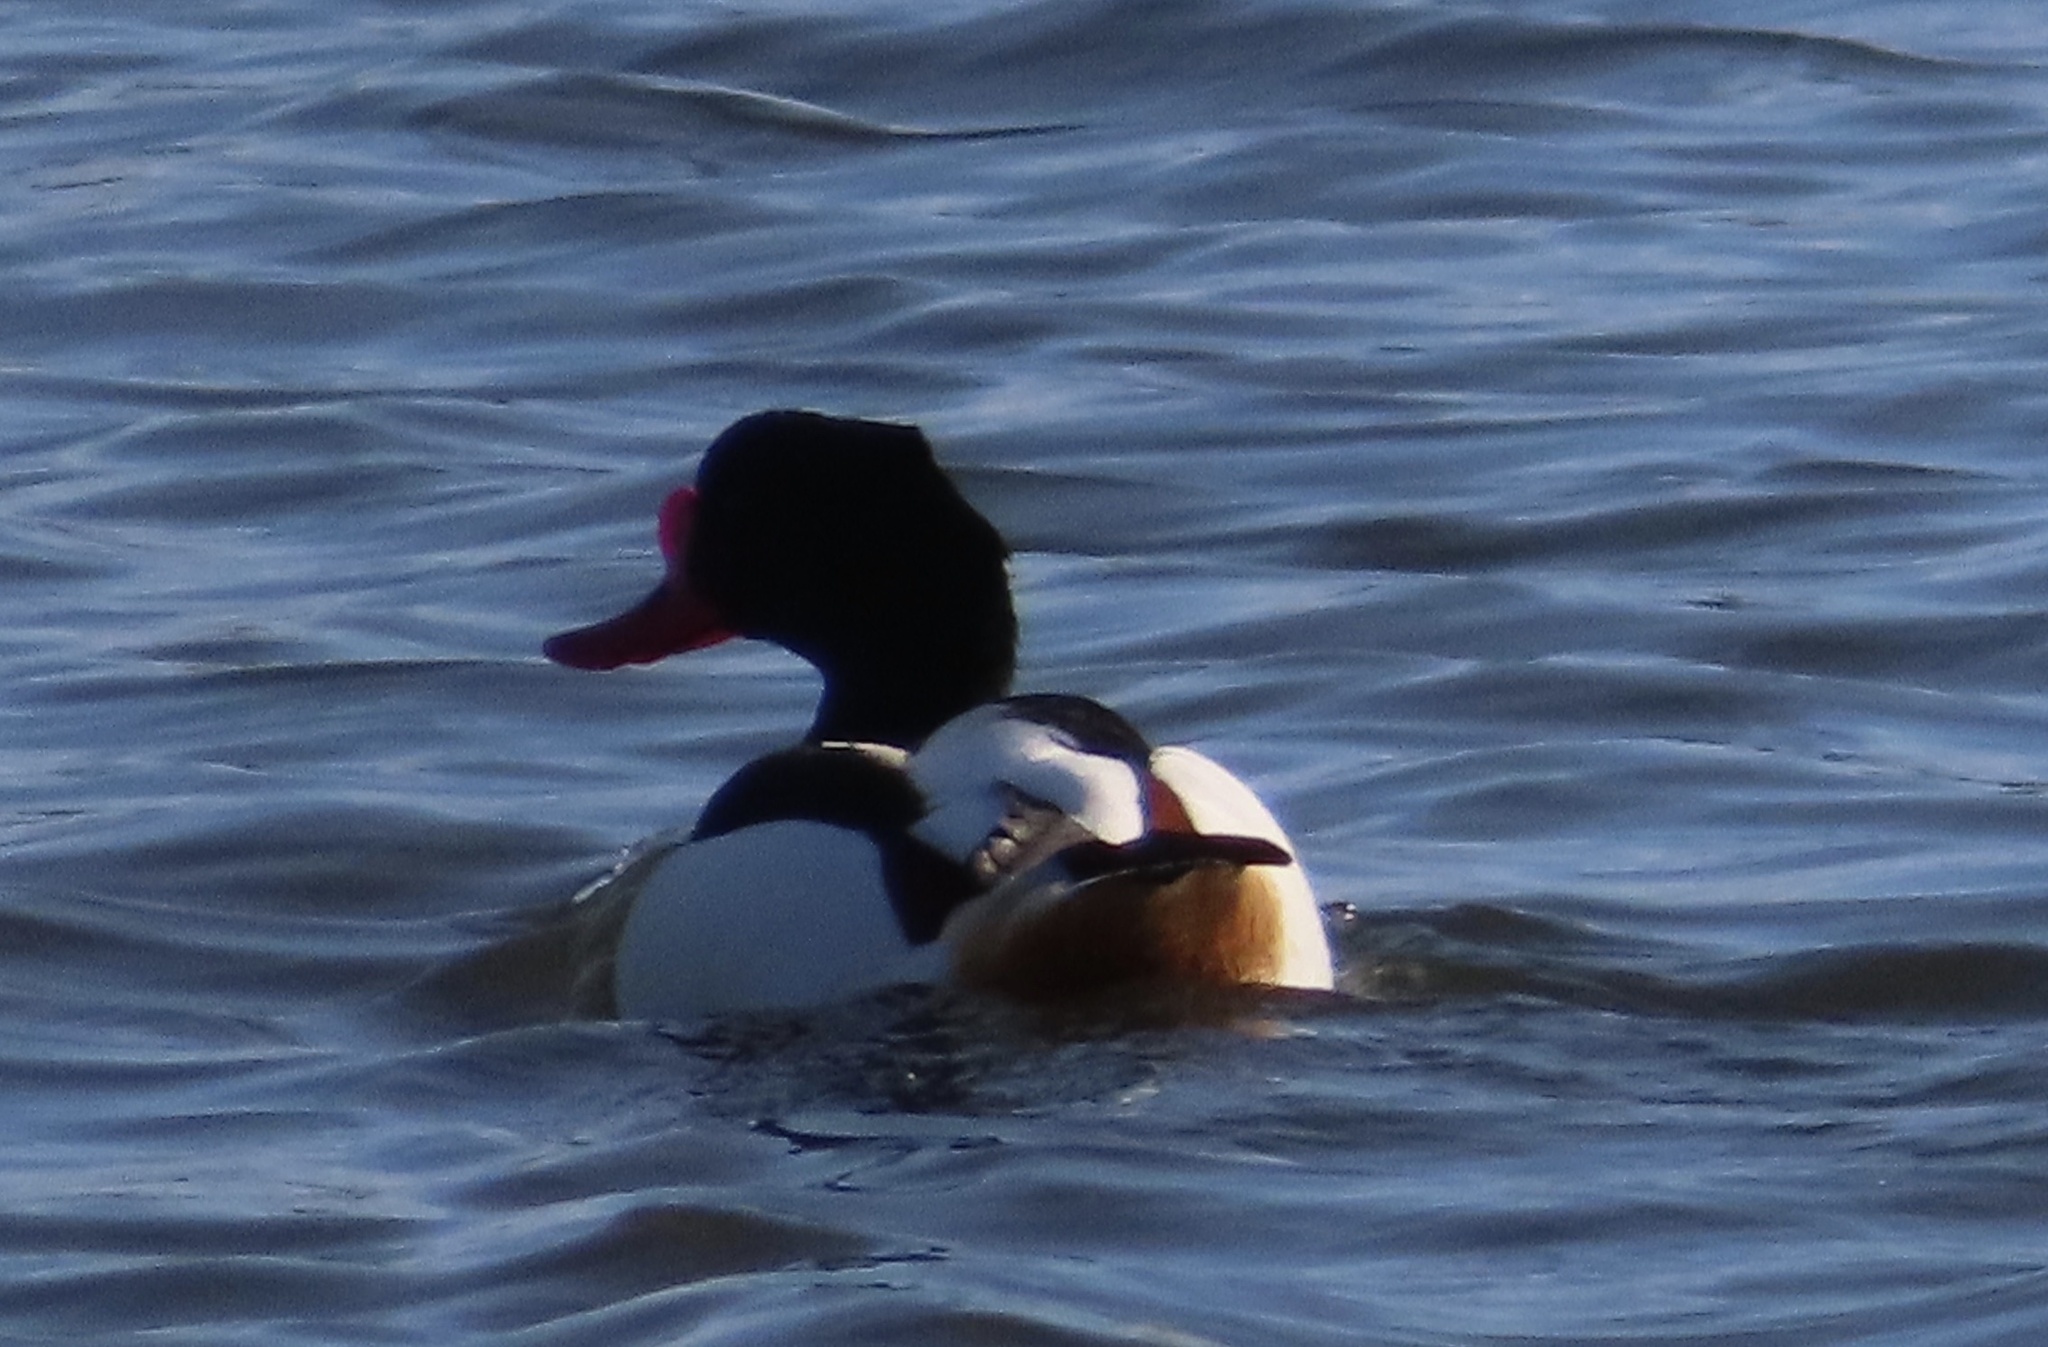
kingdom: Animalia
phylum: Chordata
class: Aves
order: Anseriformes
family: Anatidae
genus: Tadorna
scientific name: Tadorna tadorna
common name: Common shelduck
